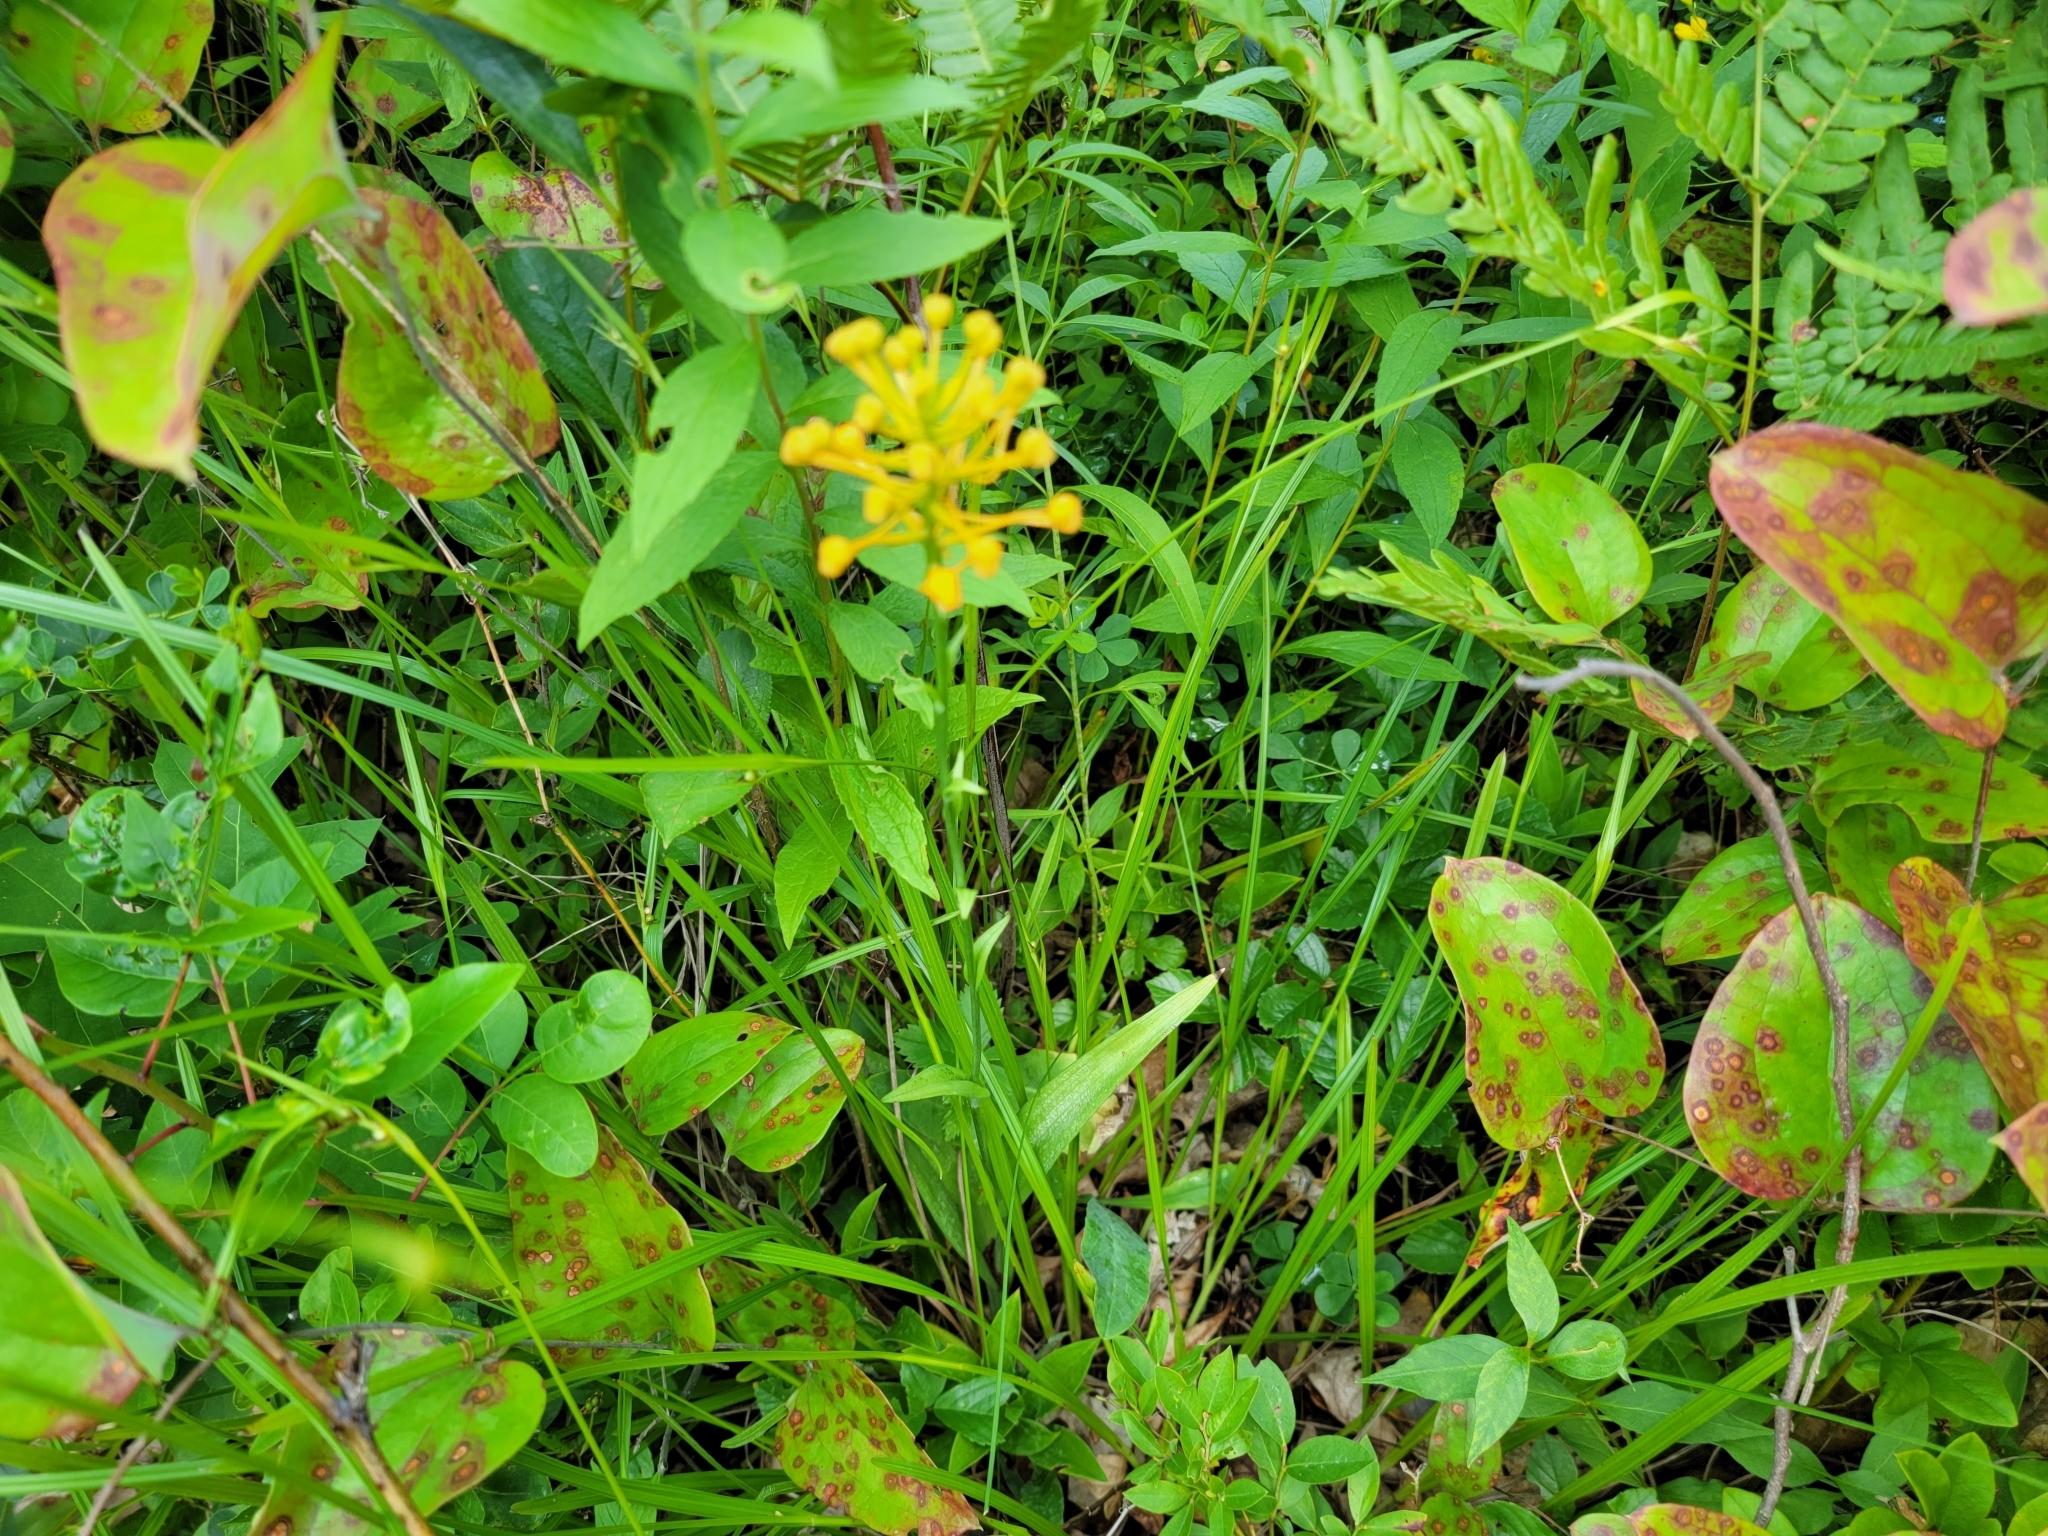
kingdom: Plantae
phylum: Tracheophyta
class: Liliopsida
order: Asparagales
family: Orchidaceae
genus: Platanthera
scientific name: Platanthera ciliaris
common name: Yellow fringed orchid
